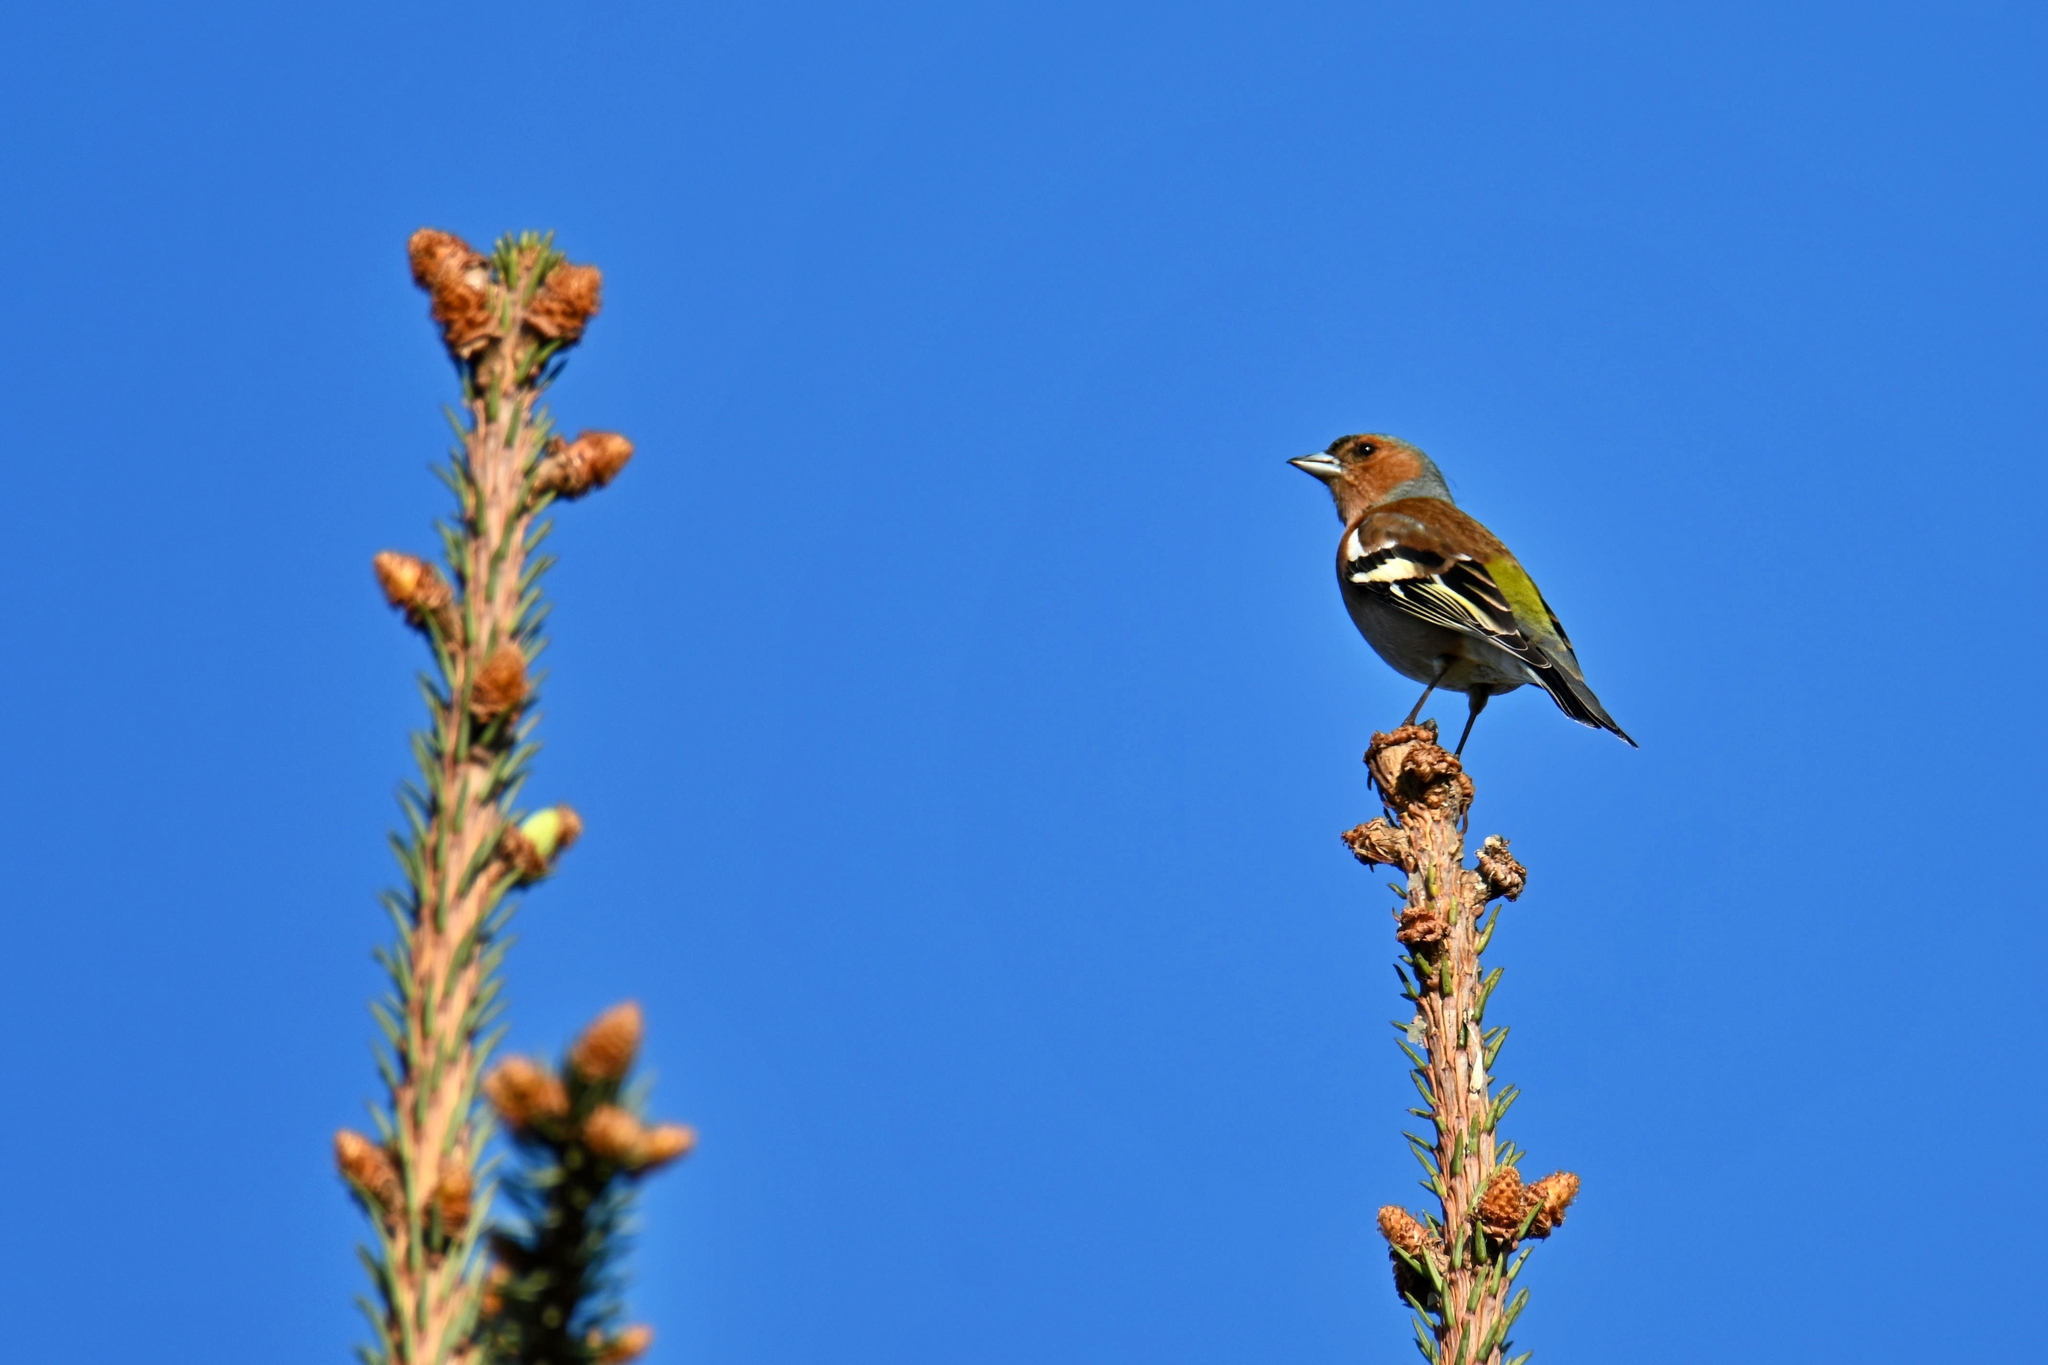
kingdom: Animalia
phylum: Chordata
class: Aves
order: Passeriformes
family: Fringillidae
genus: Fringilla
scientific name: Fringilla coelebs
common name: Common chaffinch
